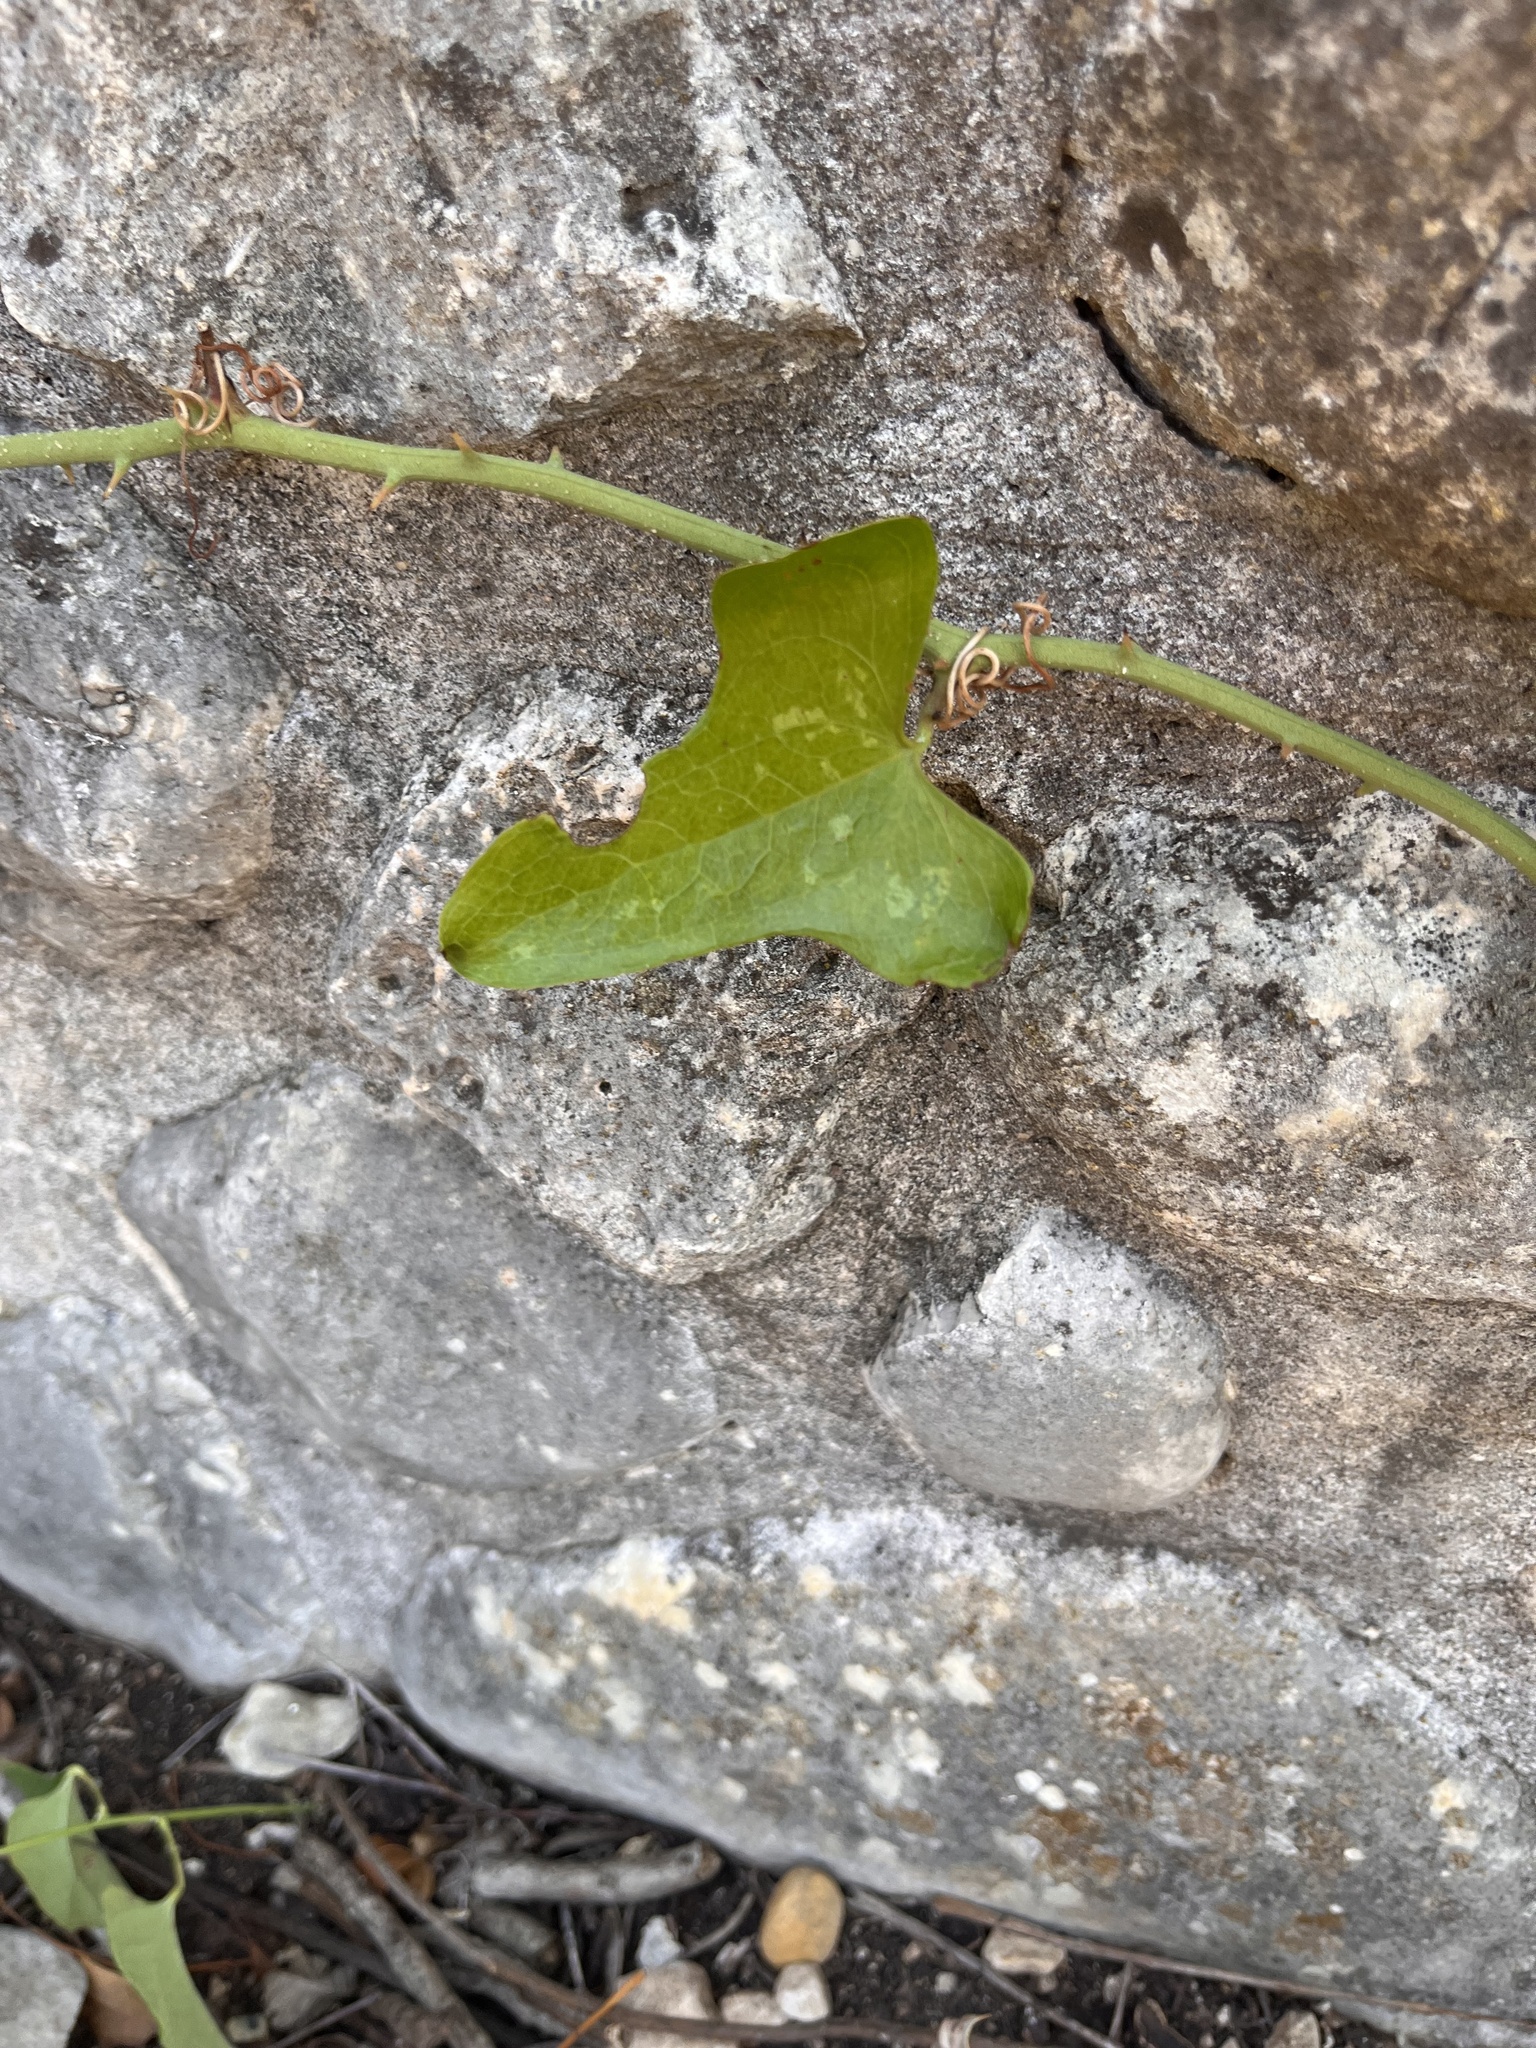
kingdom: Plantae
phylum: Tracheophyta
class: Liliopsida
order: Liliales
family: Smilacaceae
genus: Smilax
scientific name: Smilax bona-nox
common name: Catbrier
